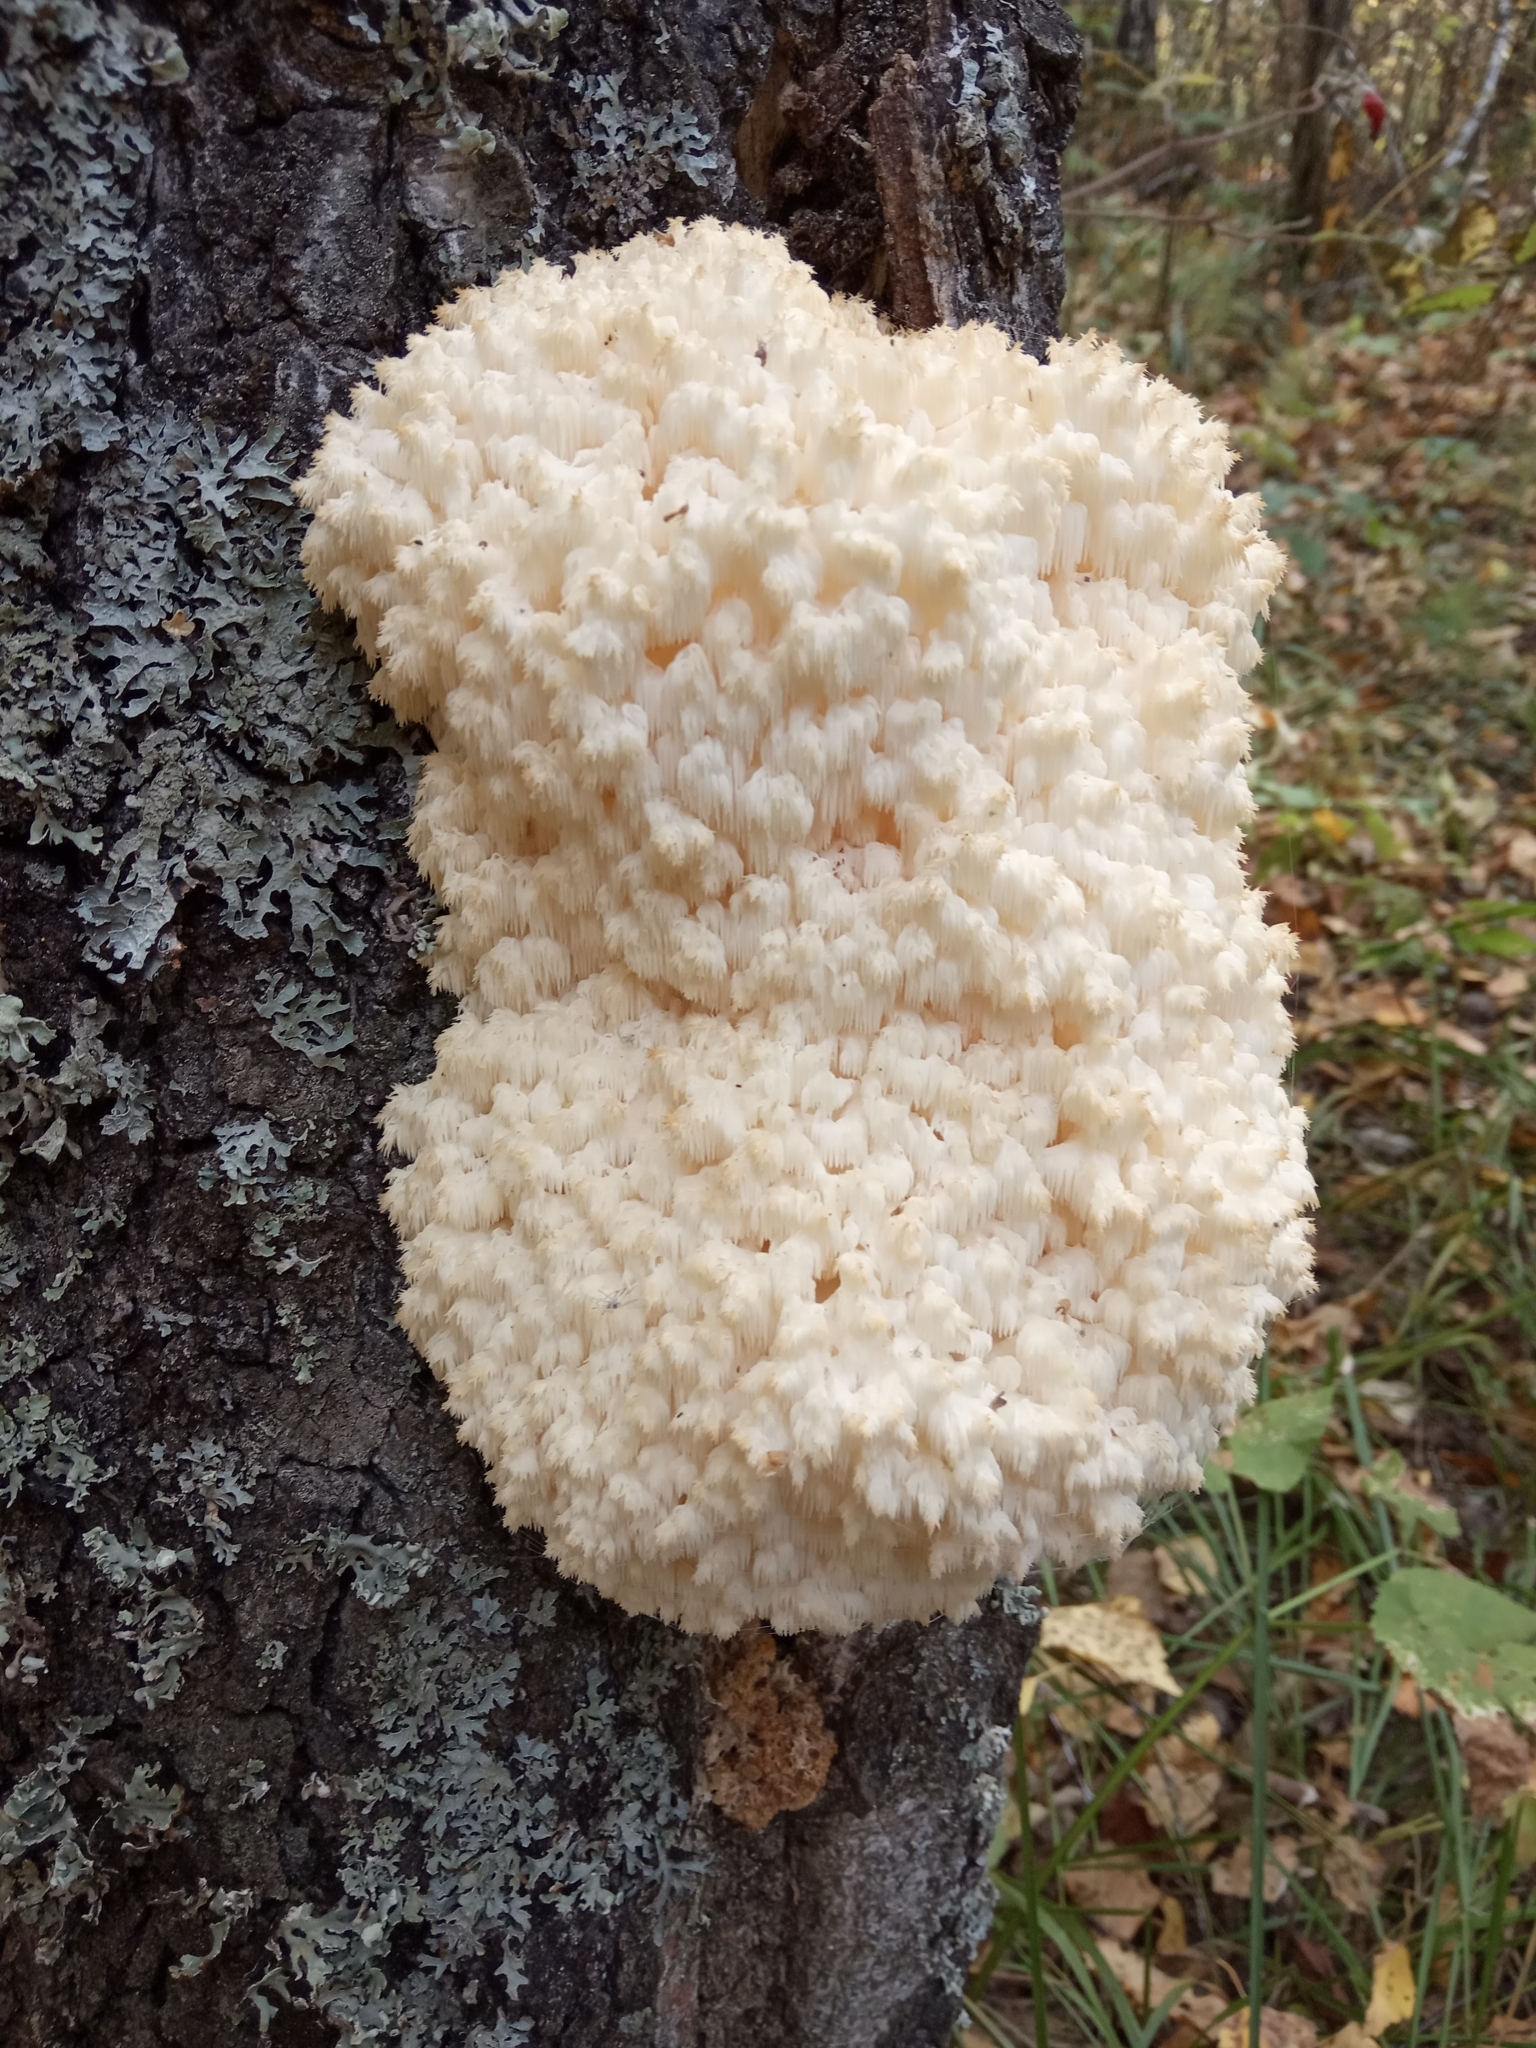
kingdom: Fungi
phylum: Basidiomycota
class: Agaricomycetes
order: Russulales
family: Hericiaceae
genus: Hericium
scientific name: Hericium coralloides
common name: Coral tooth
